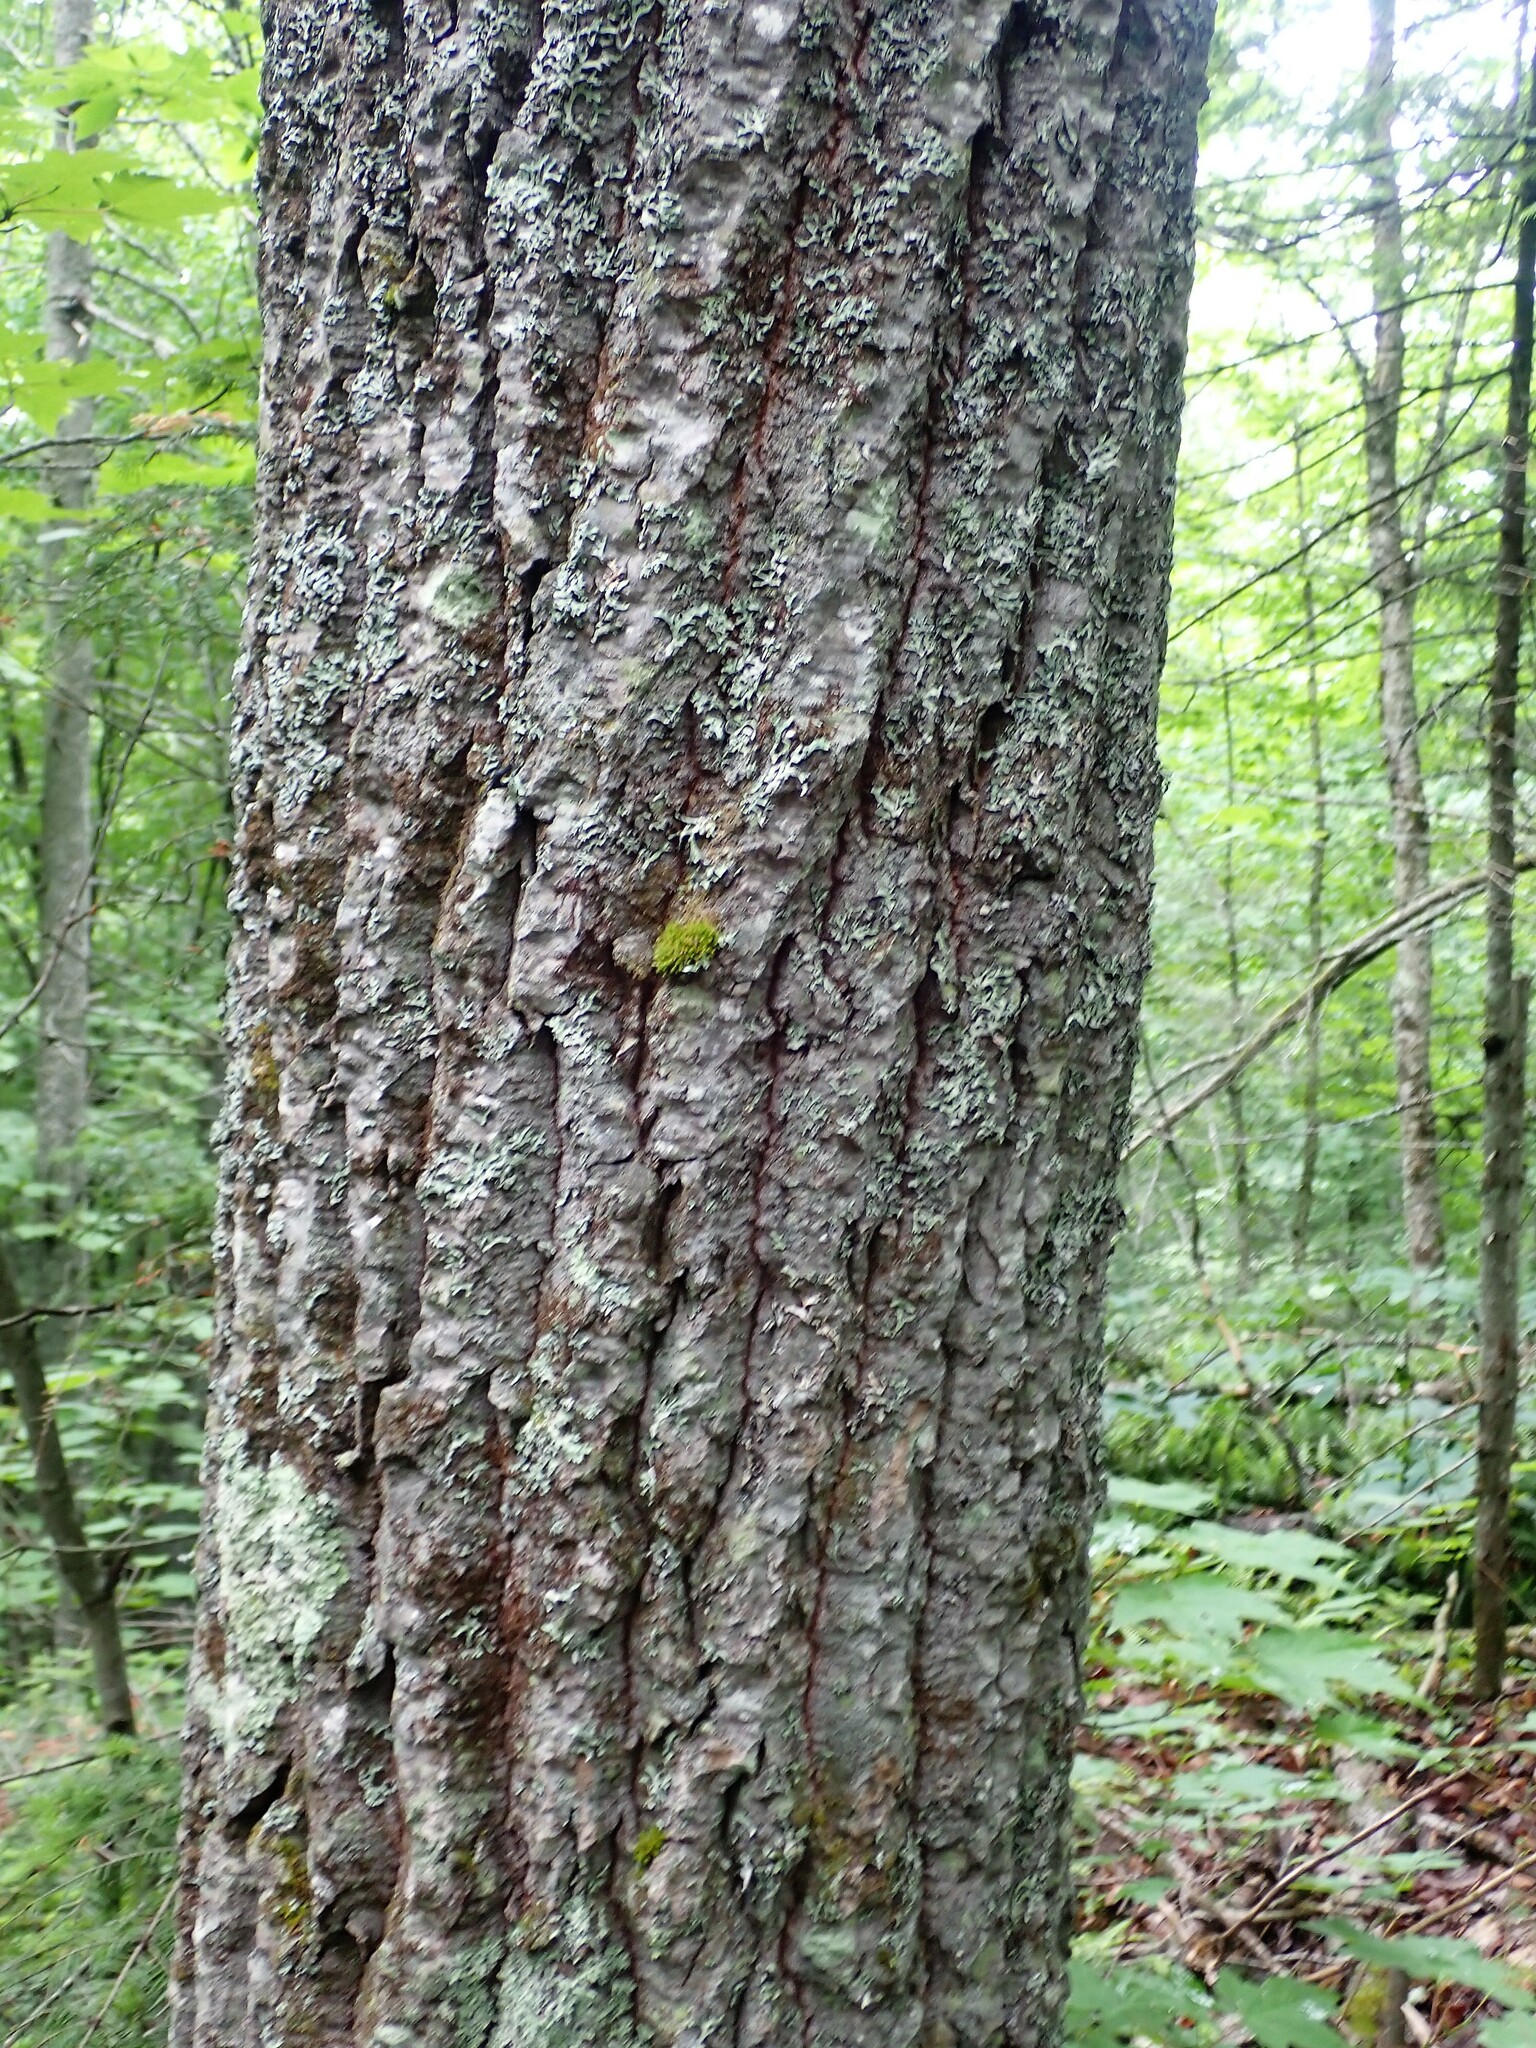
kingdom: Plantae
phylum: Tracheophyta
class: Magnoliopsida
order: Malpighiales
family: Salicaceae
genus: Populus
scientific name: Populus grandidentata
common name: Bigtooth aspen
